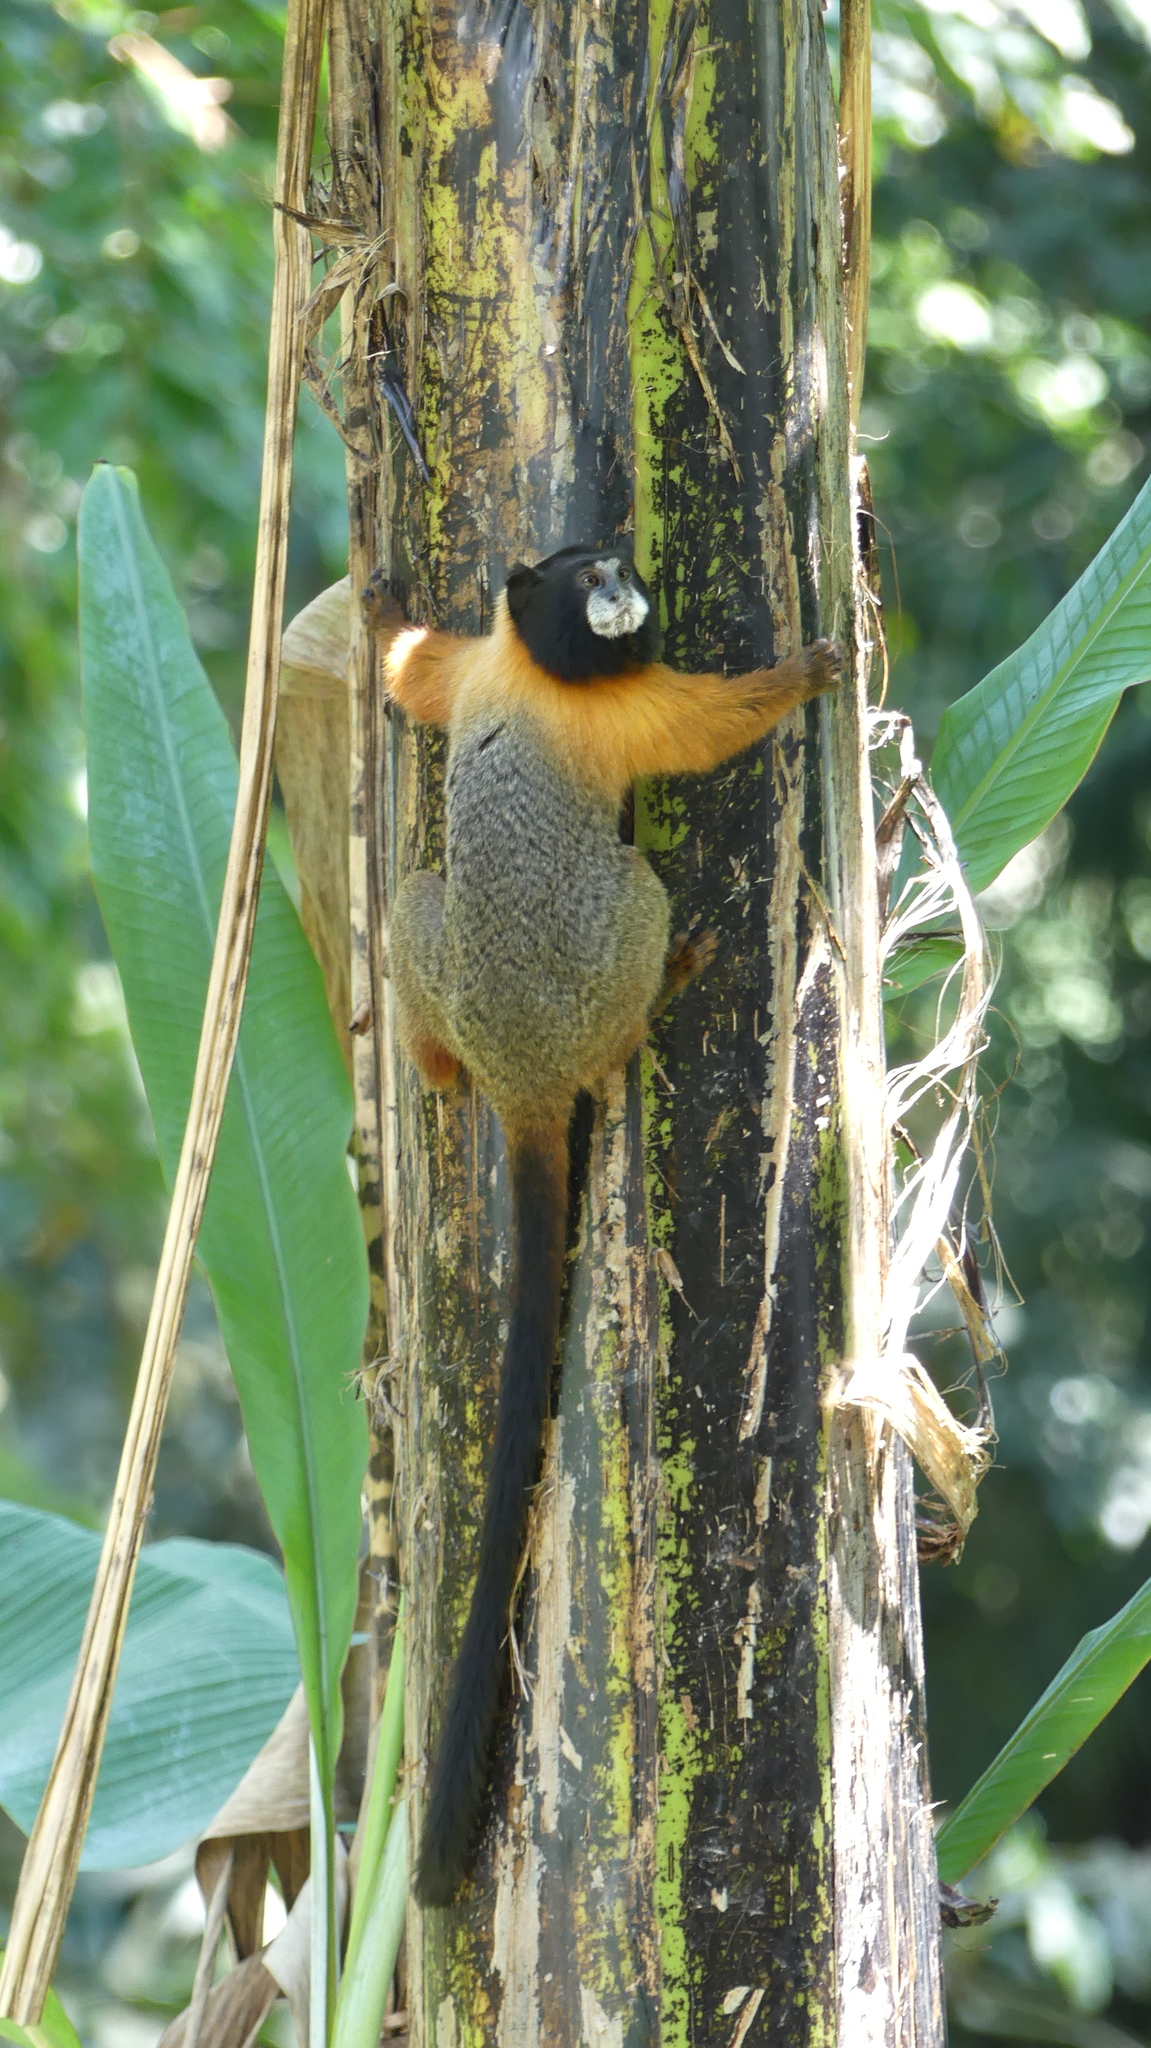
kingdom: Animalia
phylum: Chordata
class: Mammalia
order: Primates
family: Callitrichidae
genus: Leontocebus
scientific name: Leontocebus tripartitus
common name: Golden-mantled saddle-back tamarin
